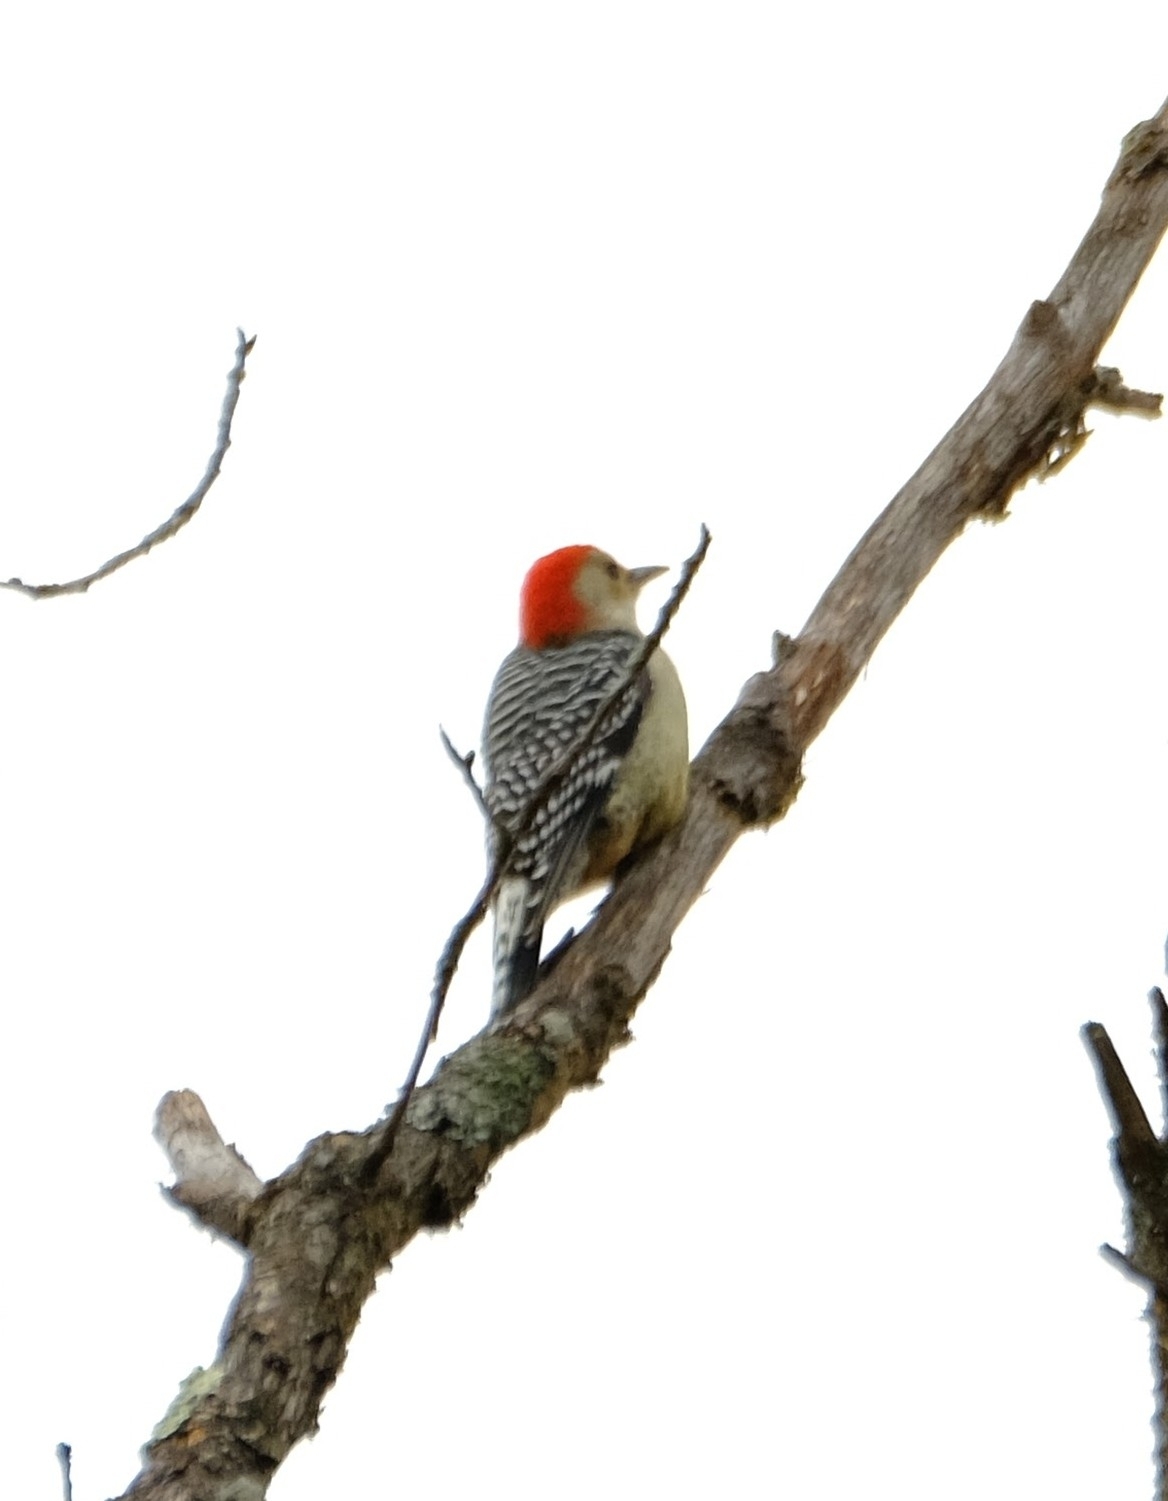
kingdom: Animalia
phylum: Chordata
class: Aves
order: Piciformes
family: Picidae
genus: Melanerpes
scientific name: Melanerpes carolinus
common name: Red-bellied woodpecker
